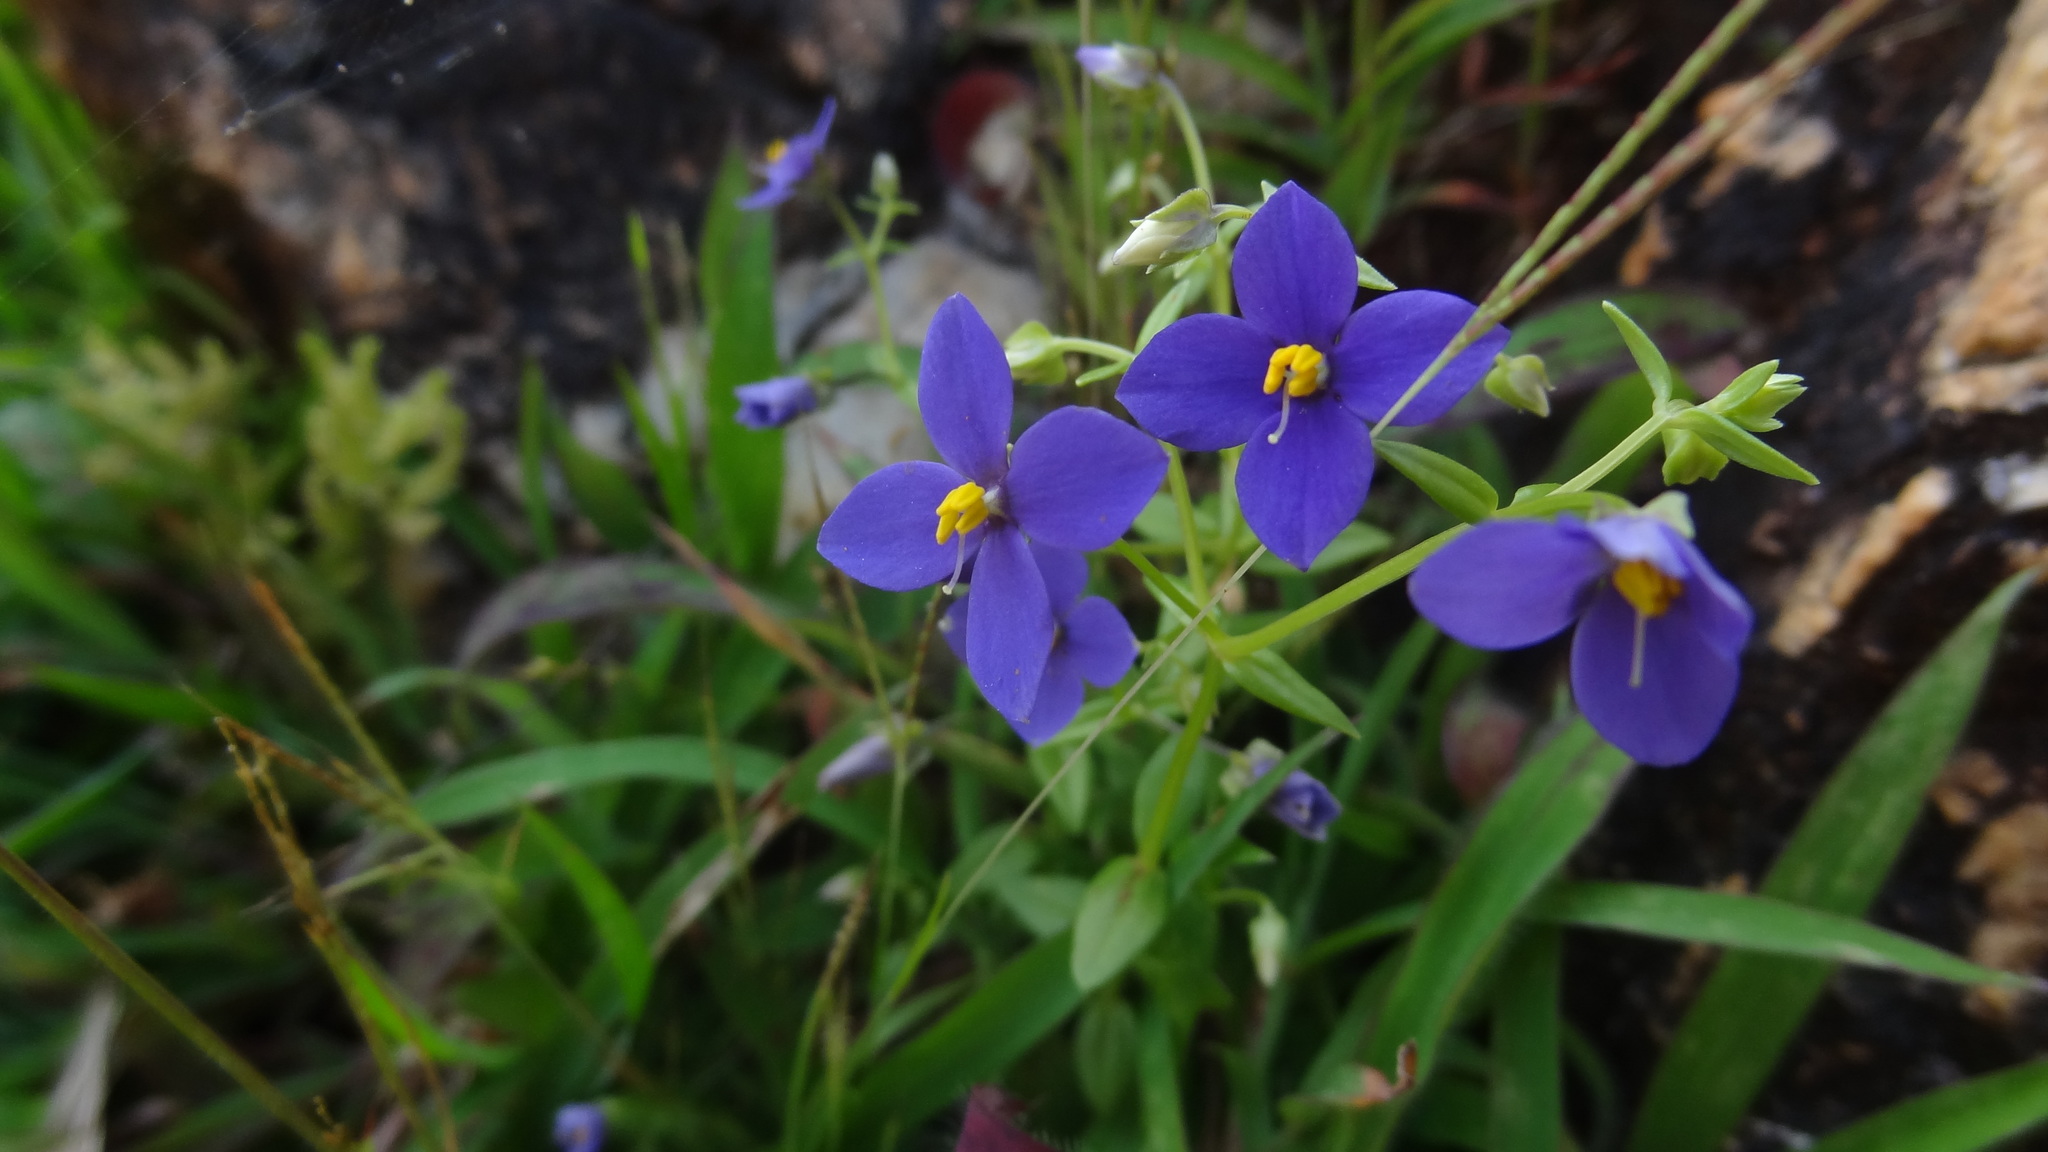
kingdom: Plantae
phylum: Tracheophyta
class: Magnoliopsida
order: Gentianales
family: Gentianaceae
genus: Exacum
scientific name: Exacum pumilum
